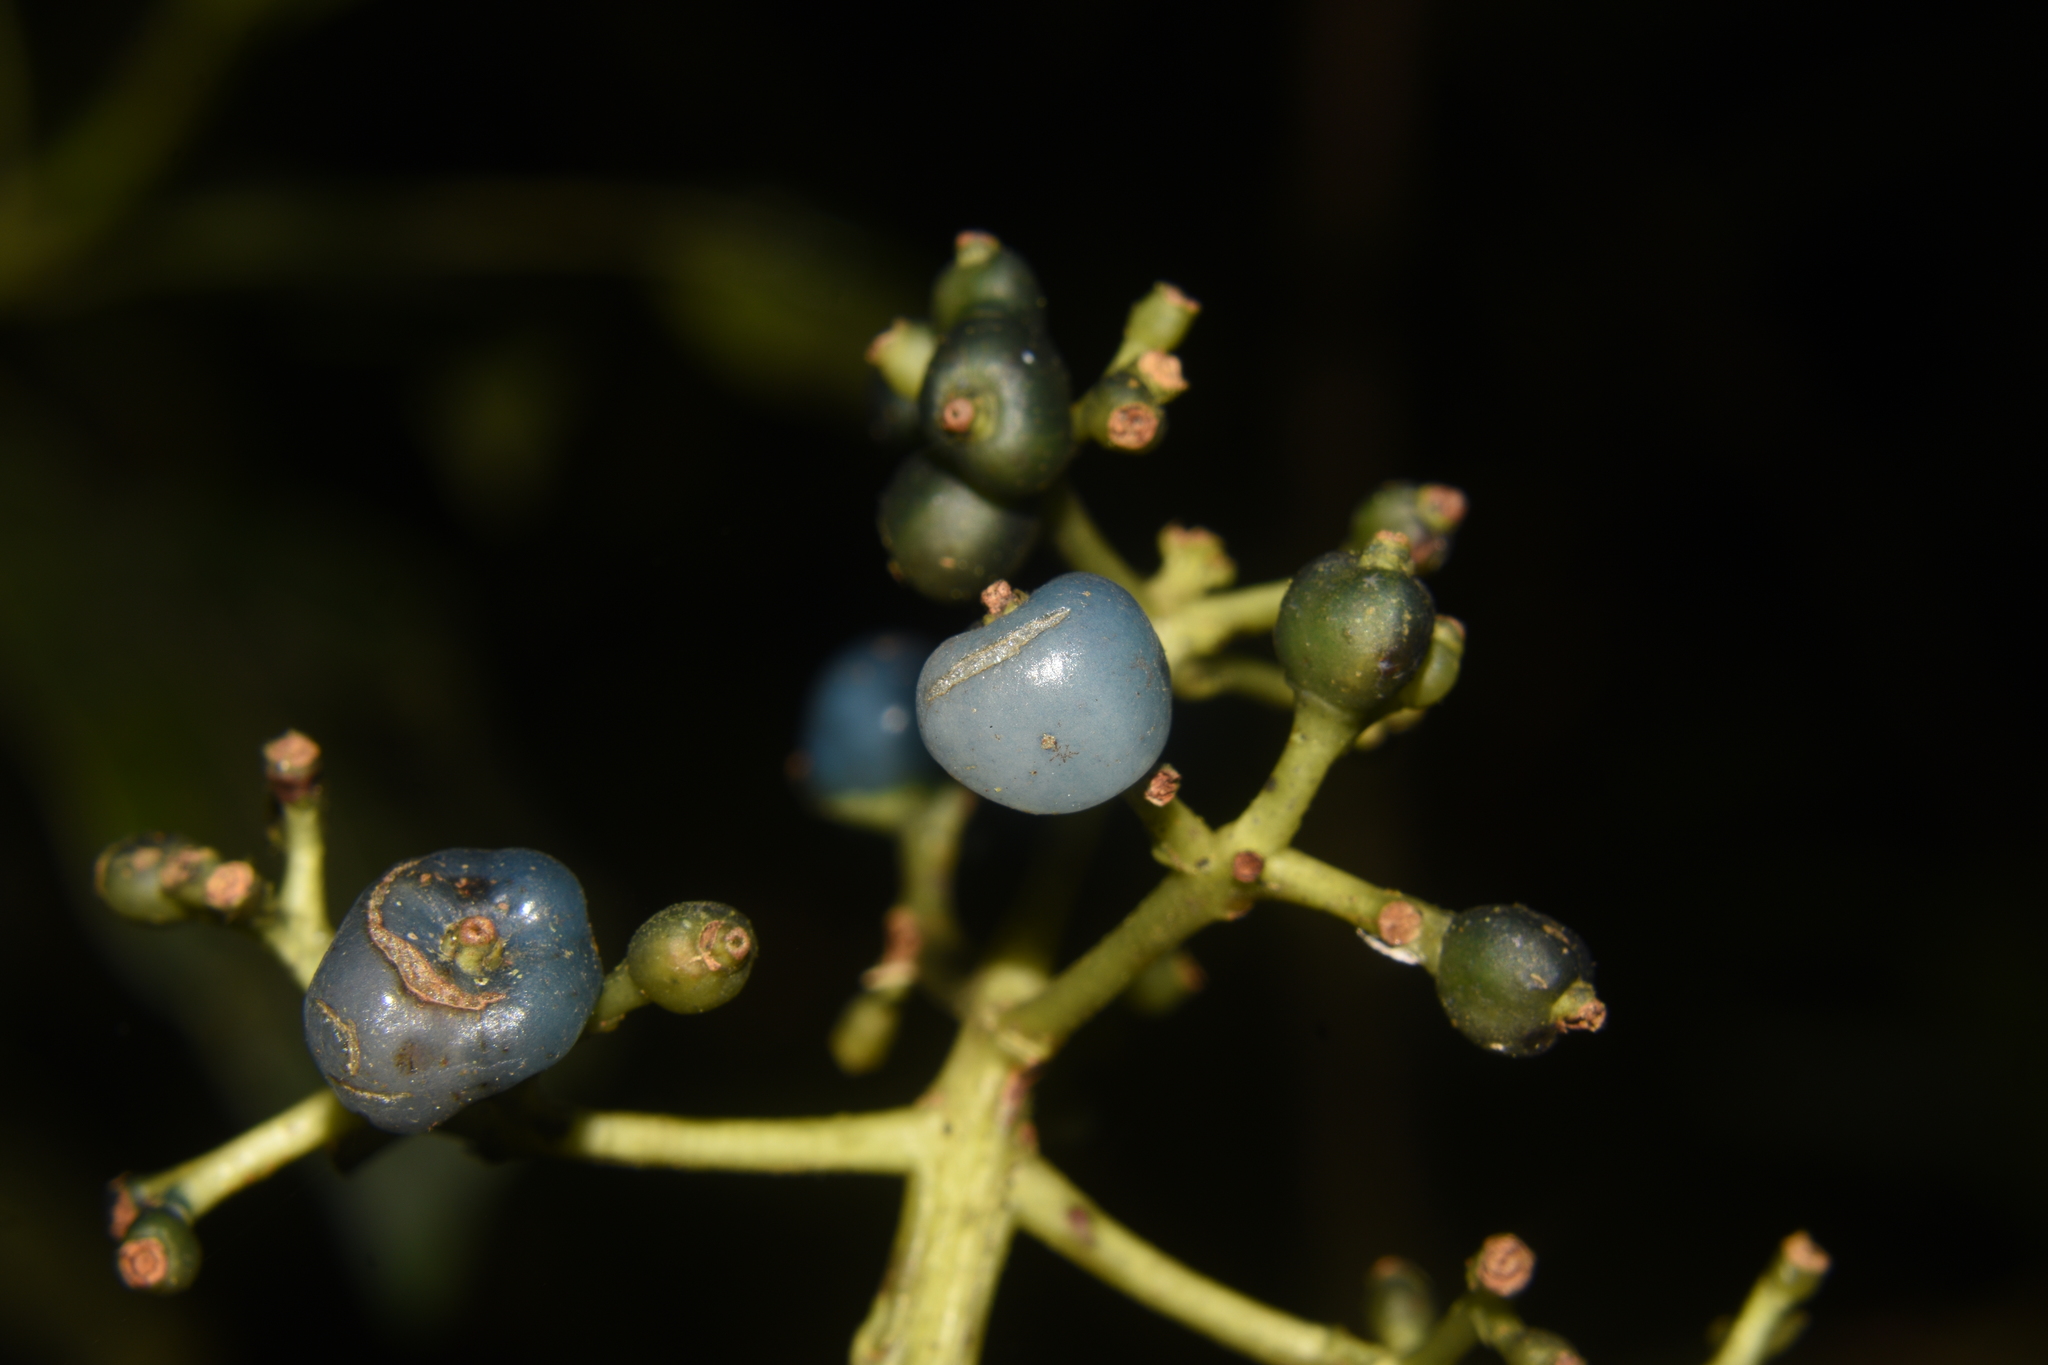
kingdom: Plantae
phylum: Tracheophyta
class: Magnoliopsida
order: Gentianales
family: Rubiaceae
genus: Palicourea
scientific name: Palicourea
